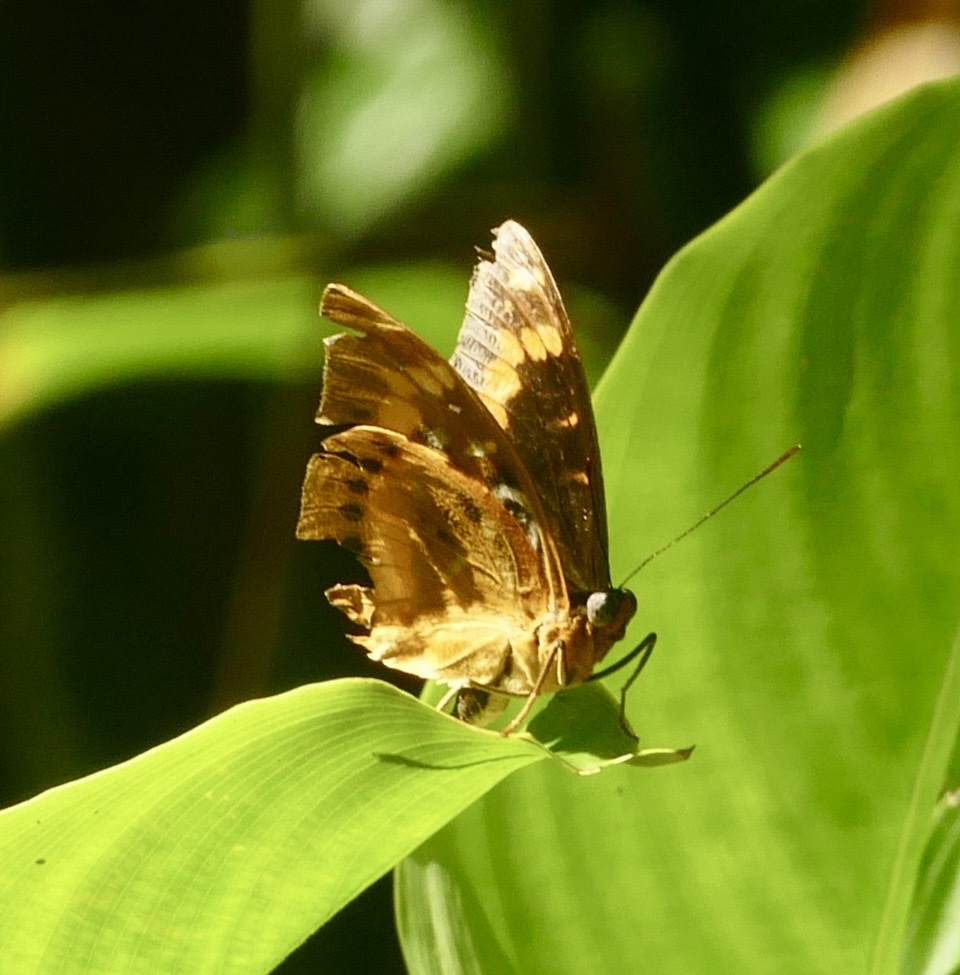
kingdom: Animalia
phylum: Arthropoda
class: Insecta
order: Lepidoptera
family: Nymphalidae
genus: Lexias
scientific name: Lexias aeropa
